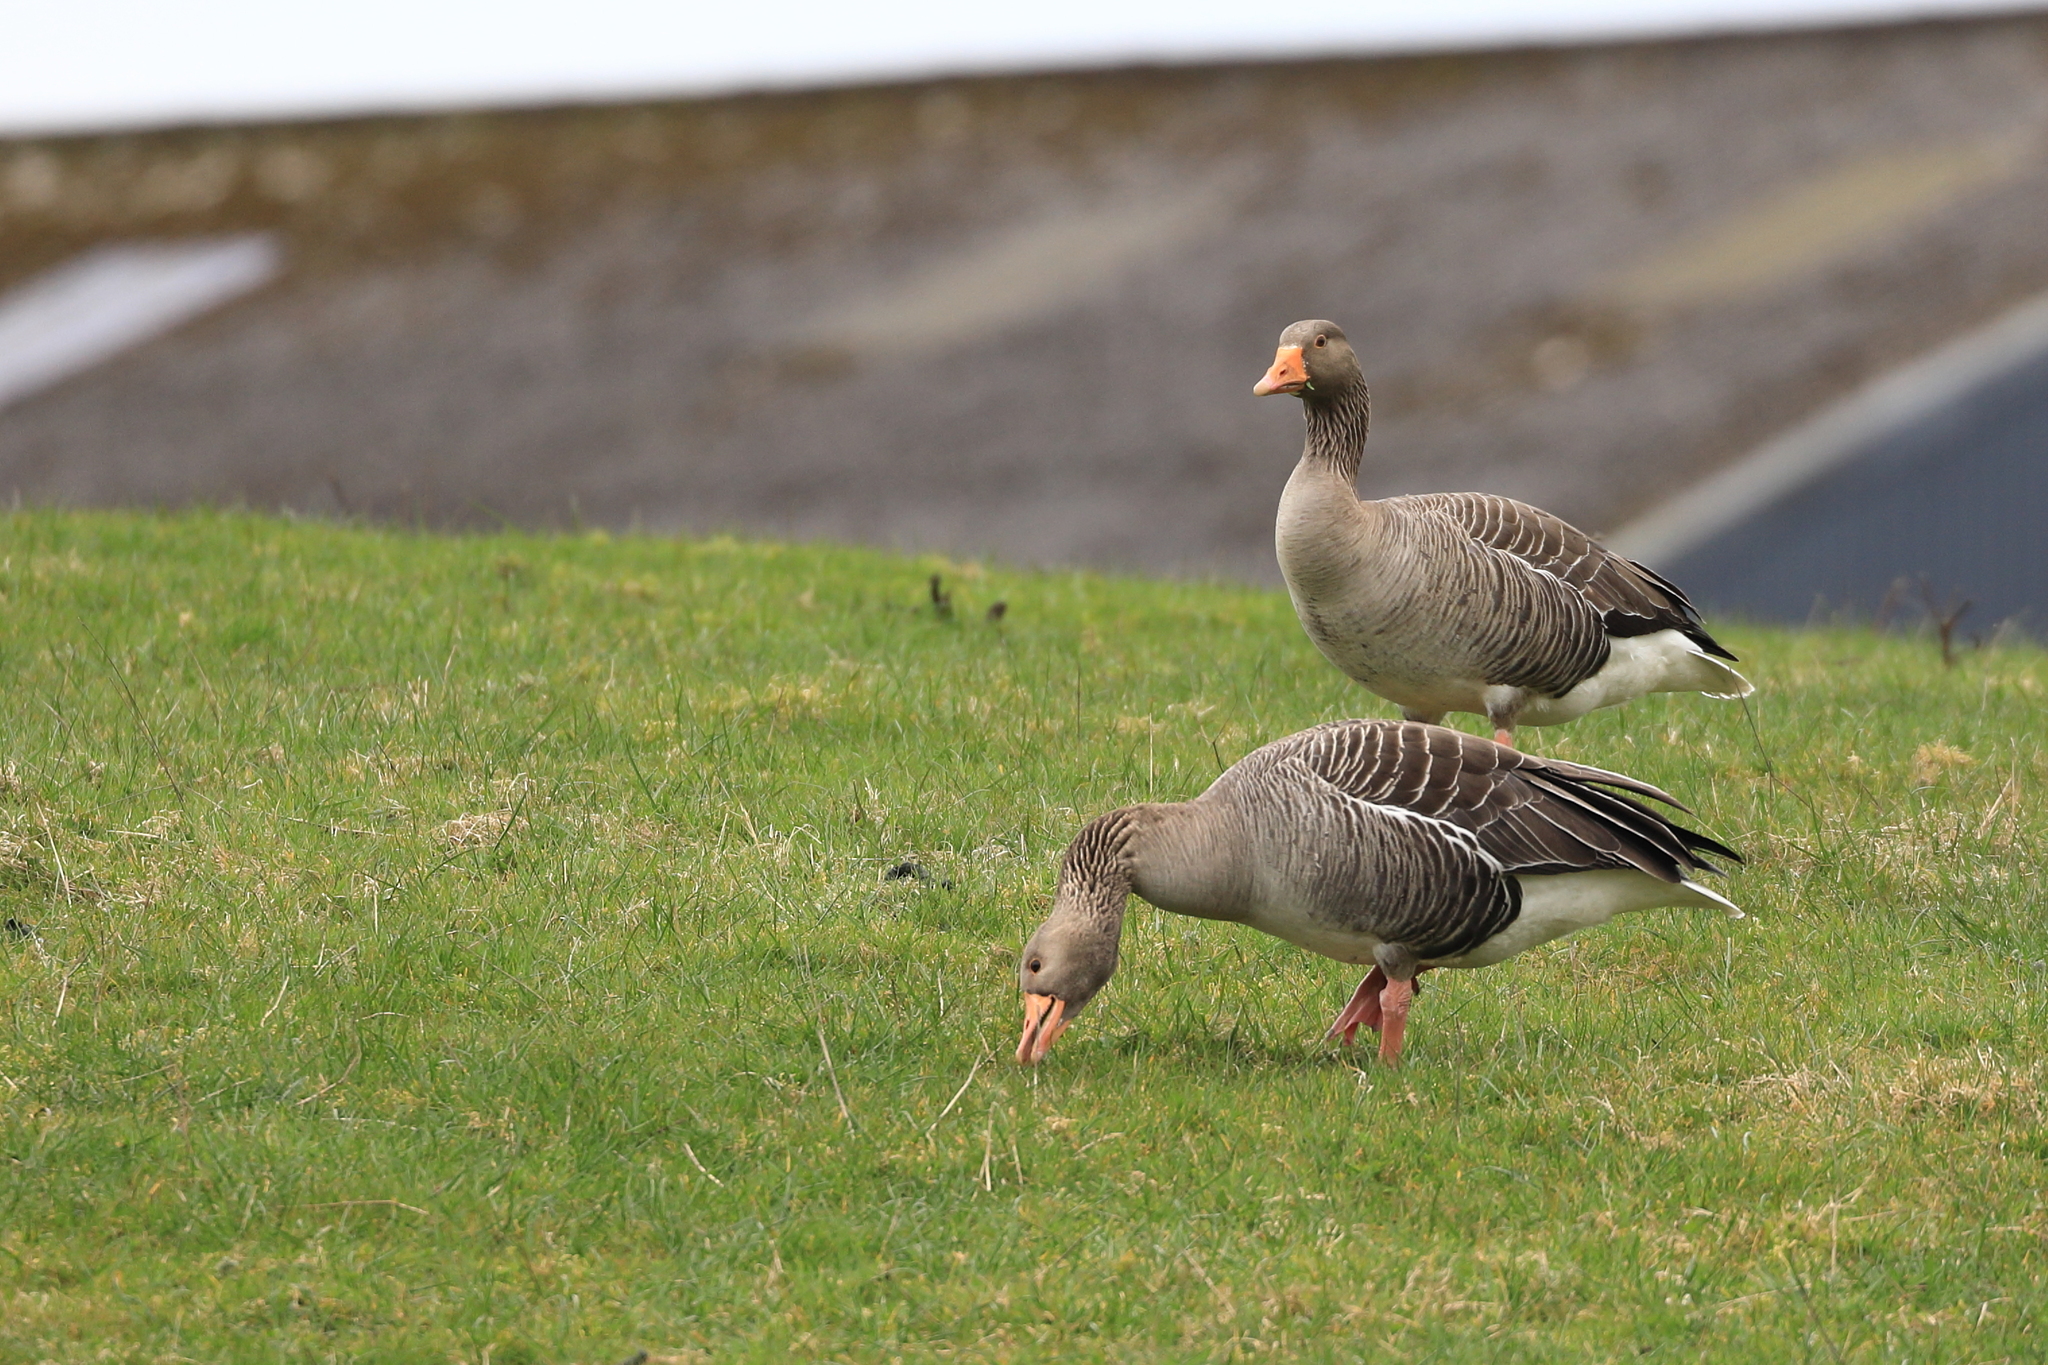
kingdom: Animalia
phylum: Chordata
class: Aves
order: Anseriformes
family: Anatidae
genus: Anser
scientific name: Anser anser
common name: Greylag goose
